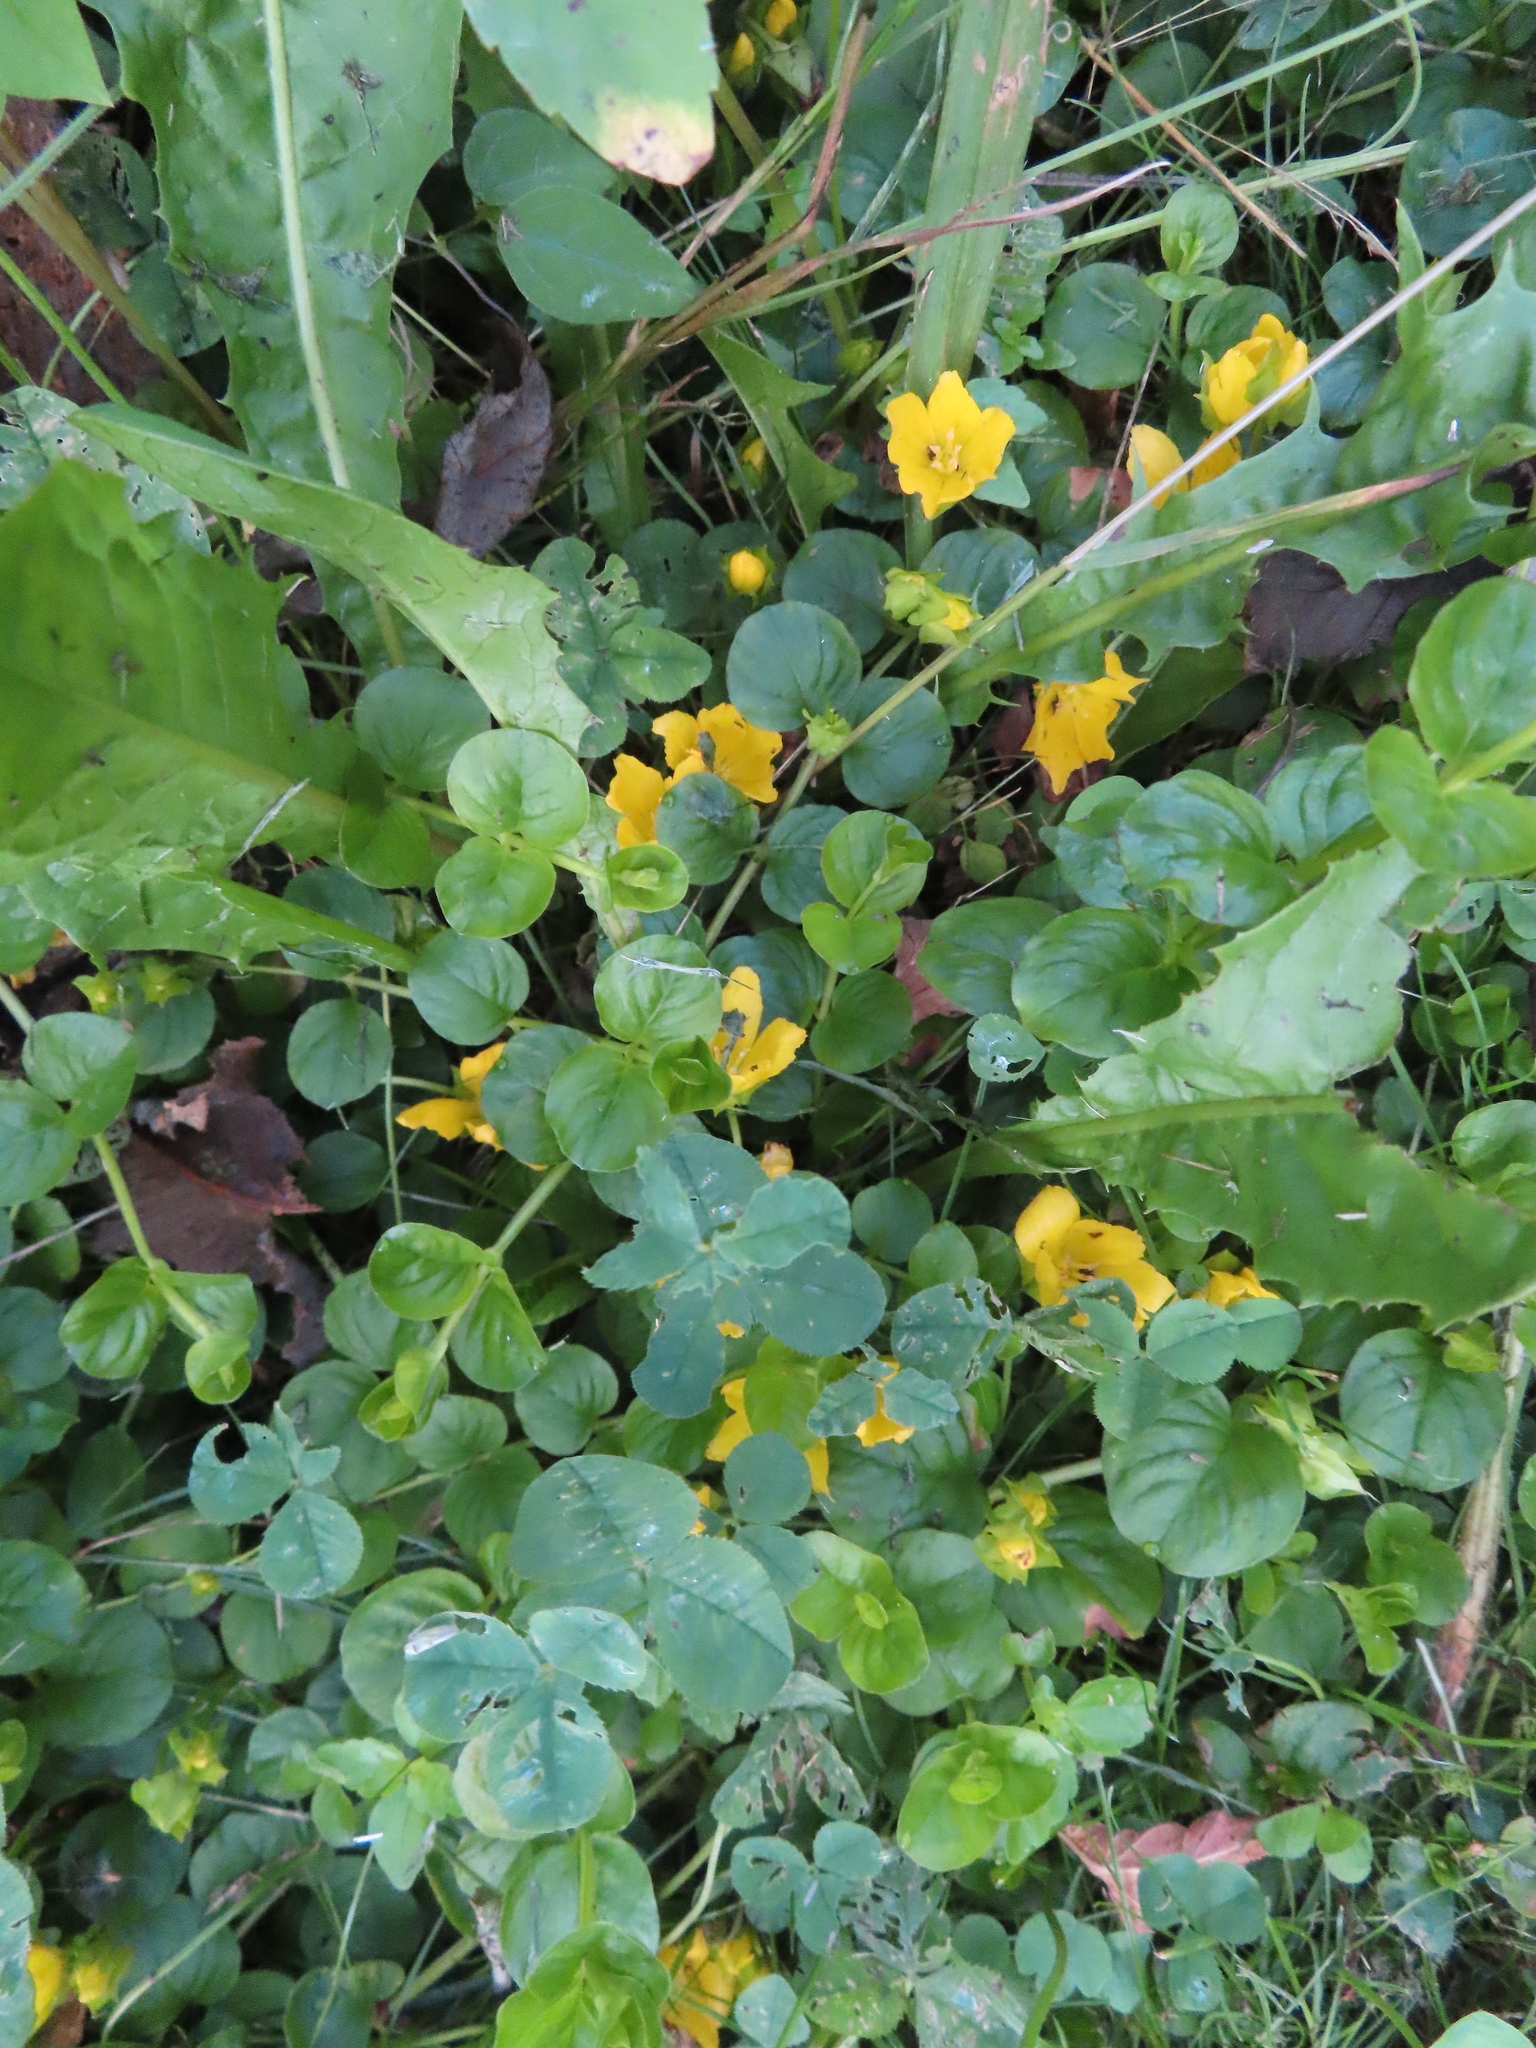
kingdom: Plantae
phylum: Tracheophyta
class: Magnoliopsida
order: Ericales
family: Primulaceae
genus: Lysimachia
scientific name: Lysimachia nummularia
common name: Moneywort
